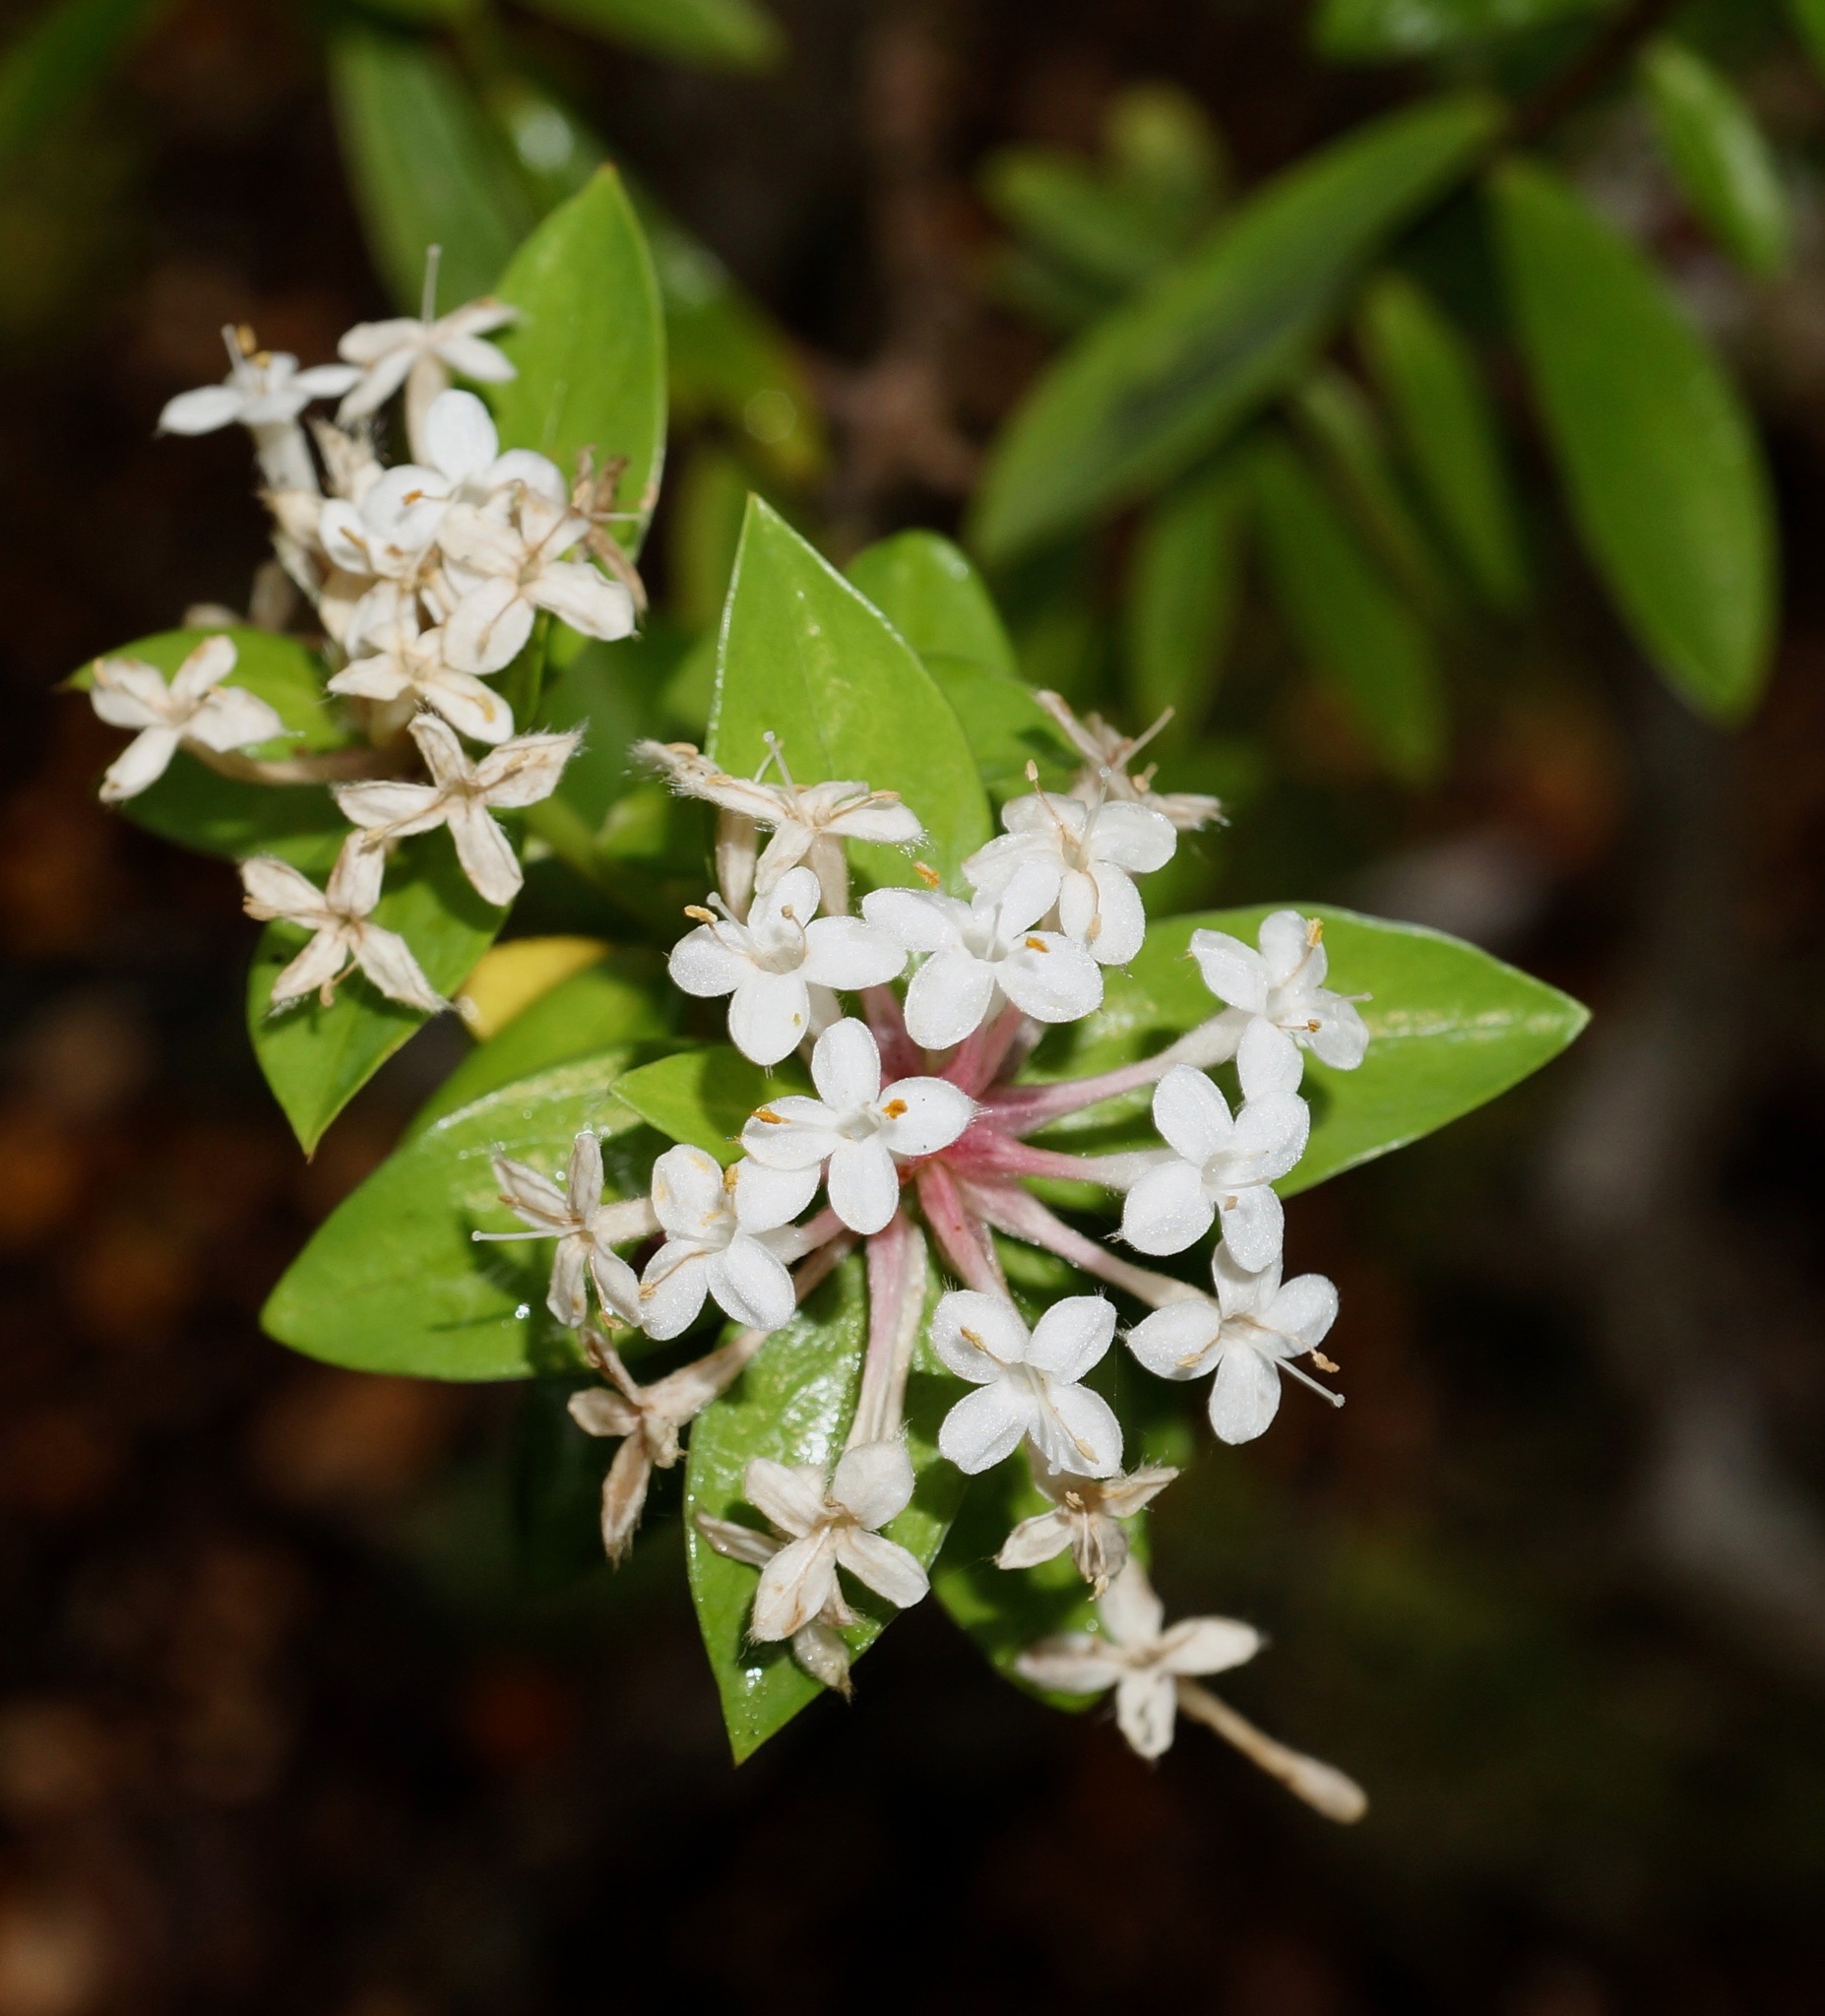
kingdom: Plantae
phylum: Tracheophyta
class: Magnoliopsida
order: Malvales
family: Thymelaeaceae
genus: Pimelea
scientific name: Pimelea longifolia
